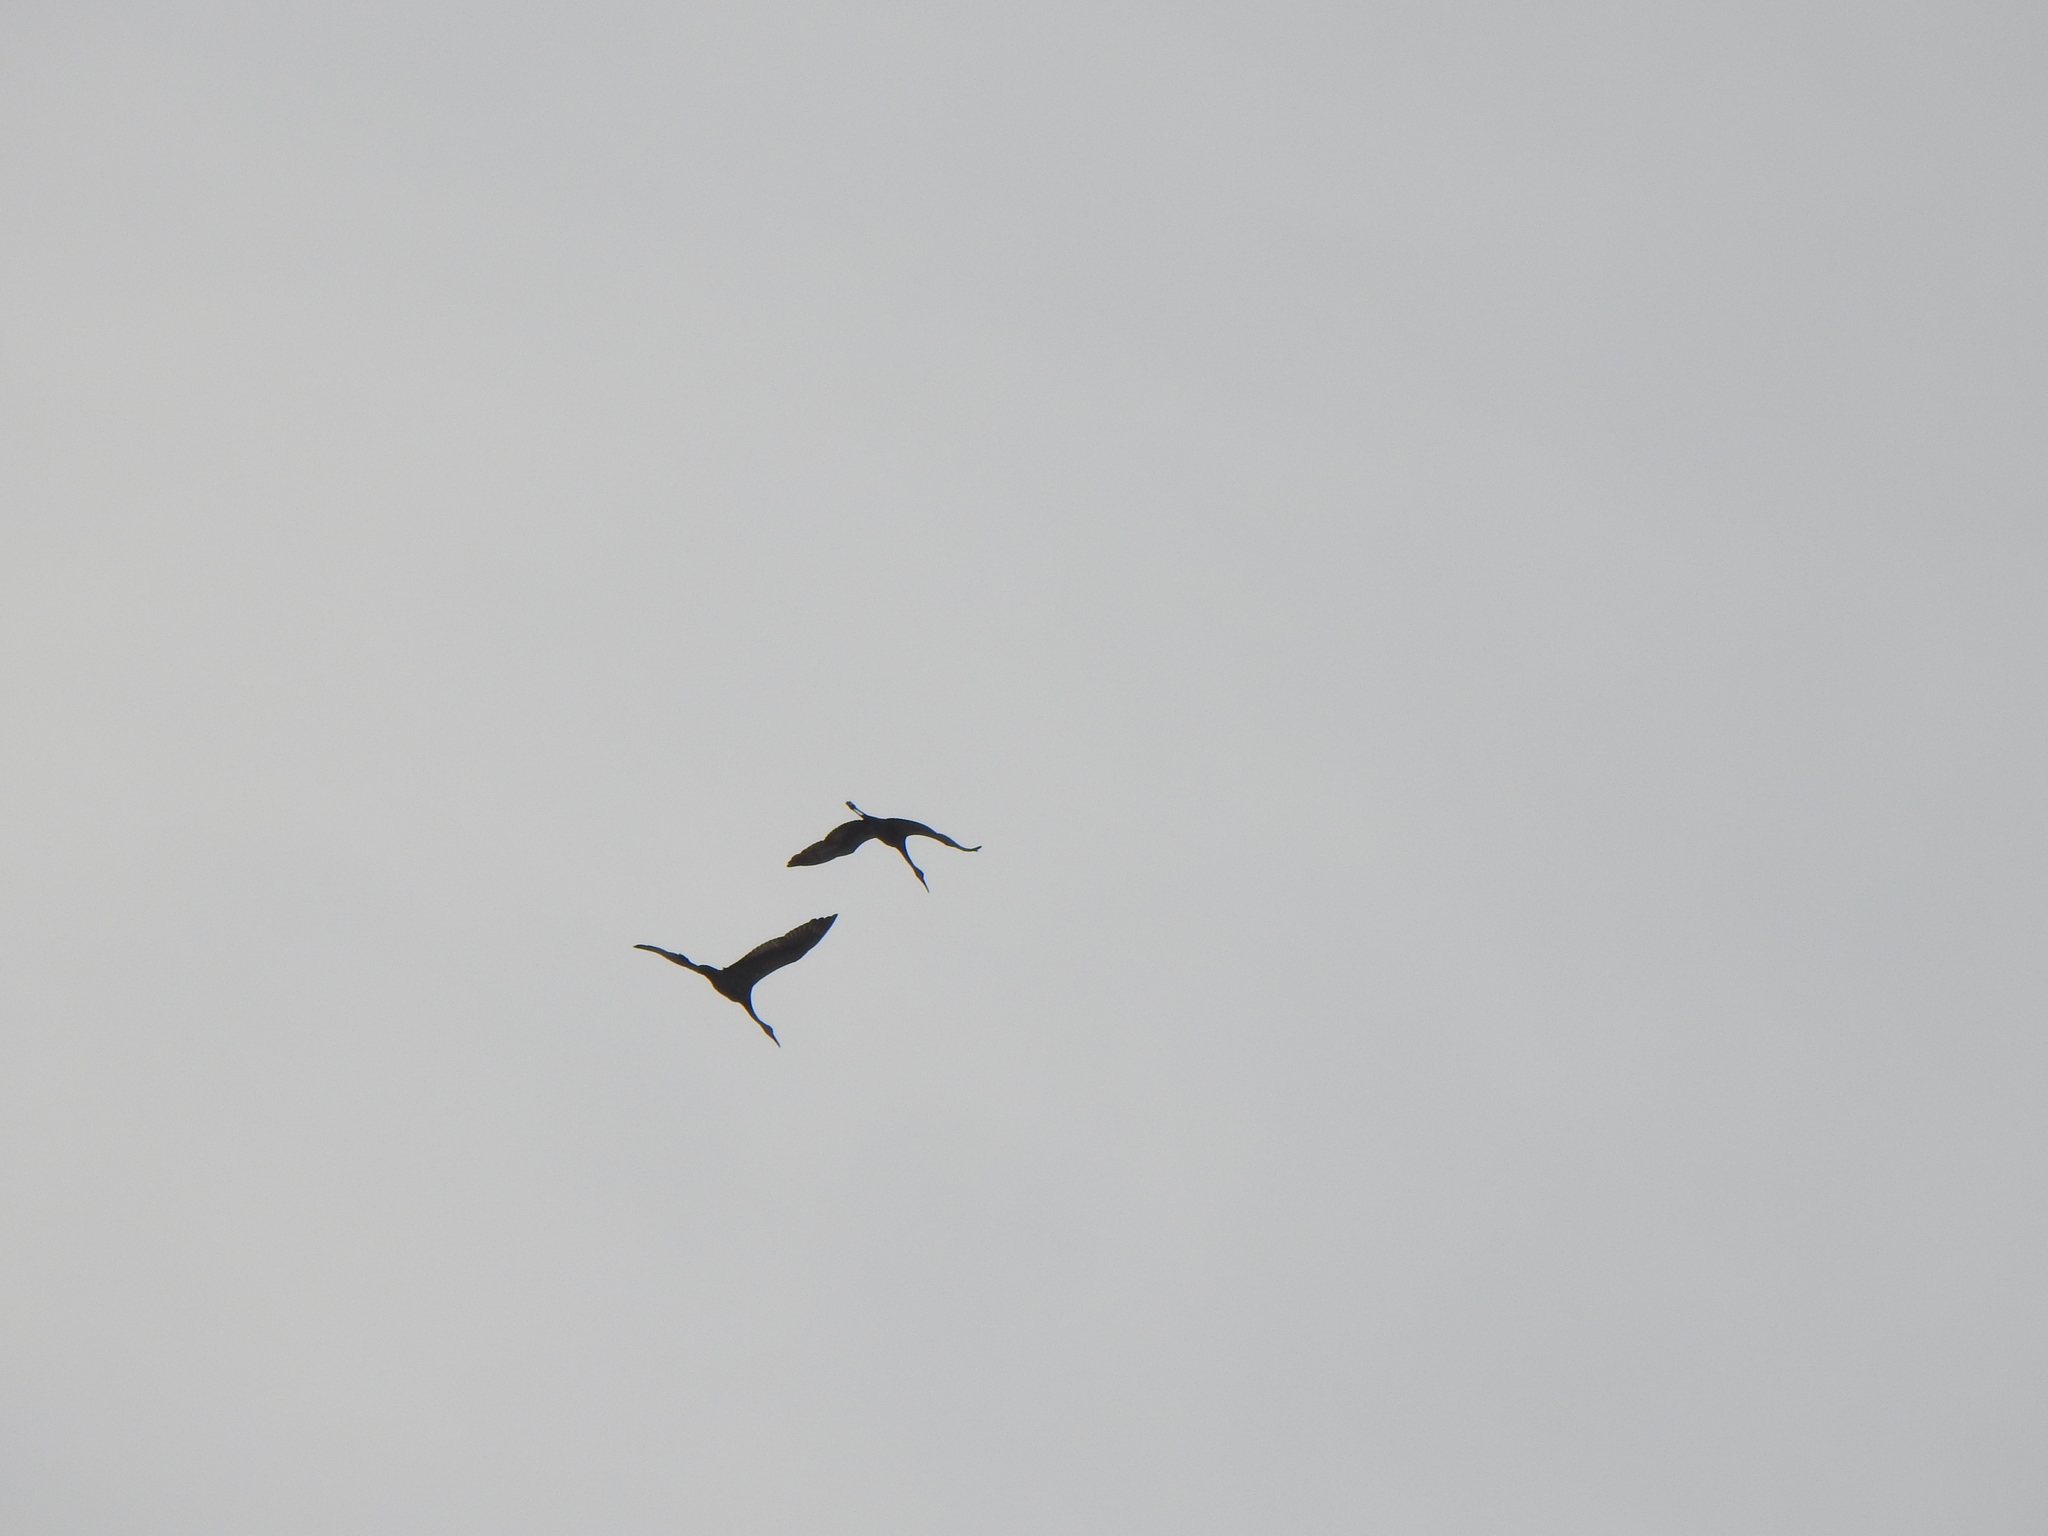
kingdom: Animalia
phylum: Chordata
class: Aves
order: Gruiformes
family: Gruidae
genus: Grus
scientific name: Grus canadensis
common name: Sandhill crane
